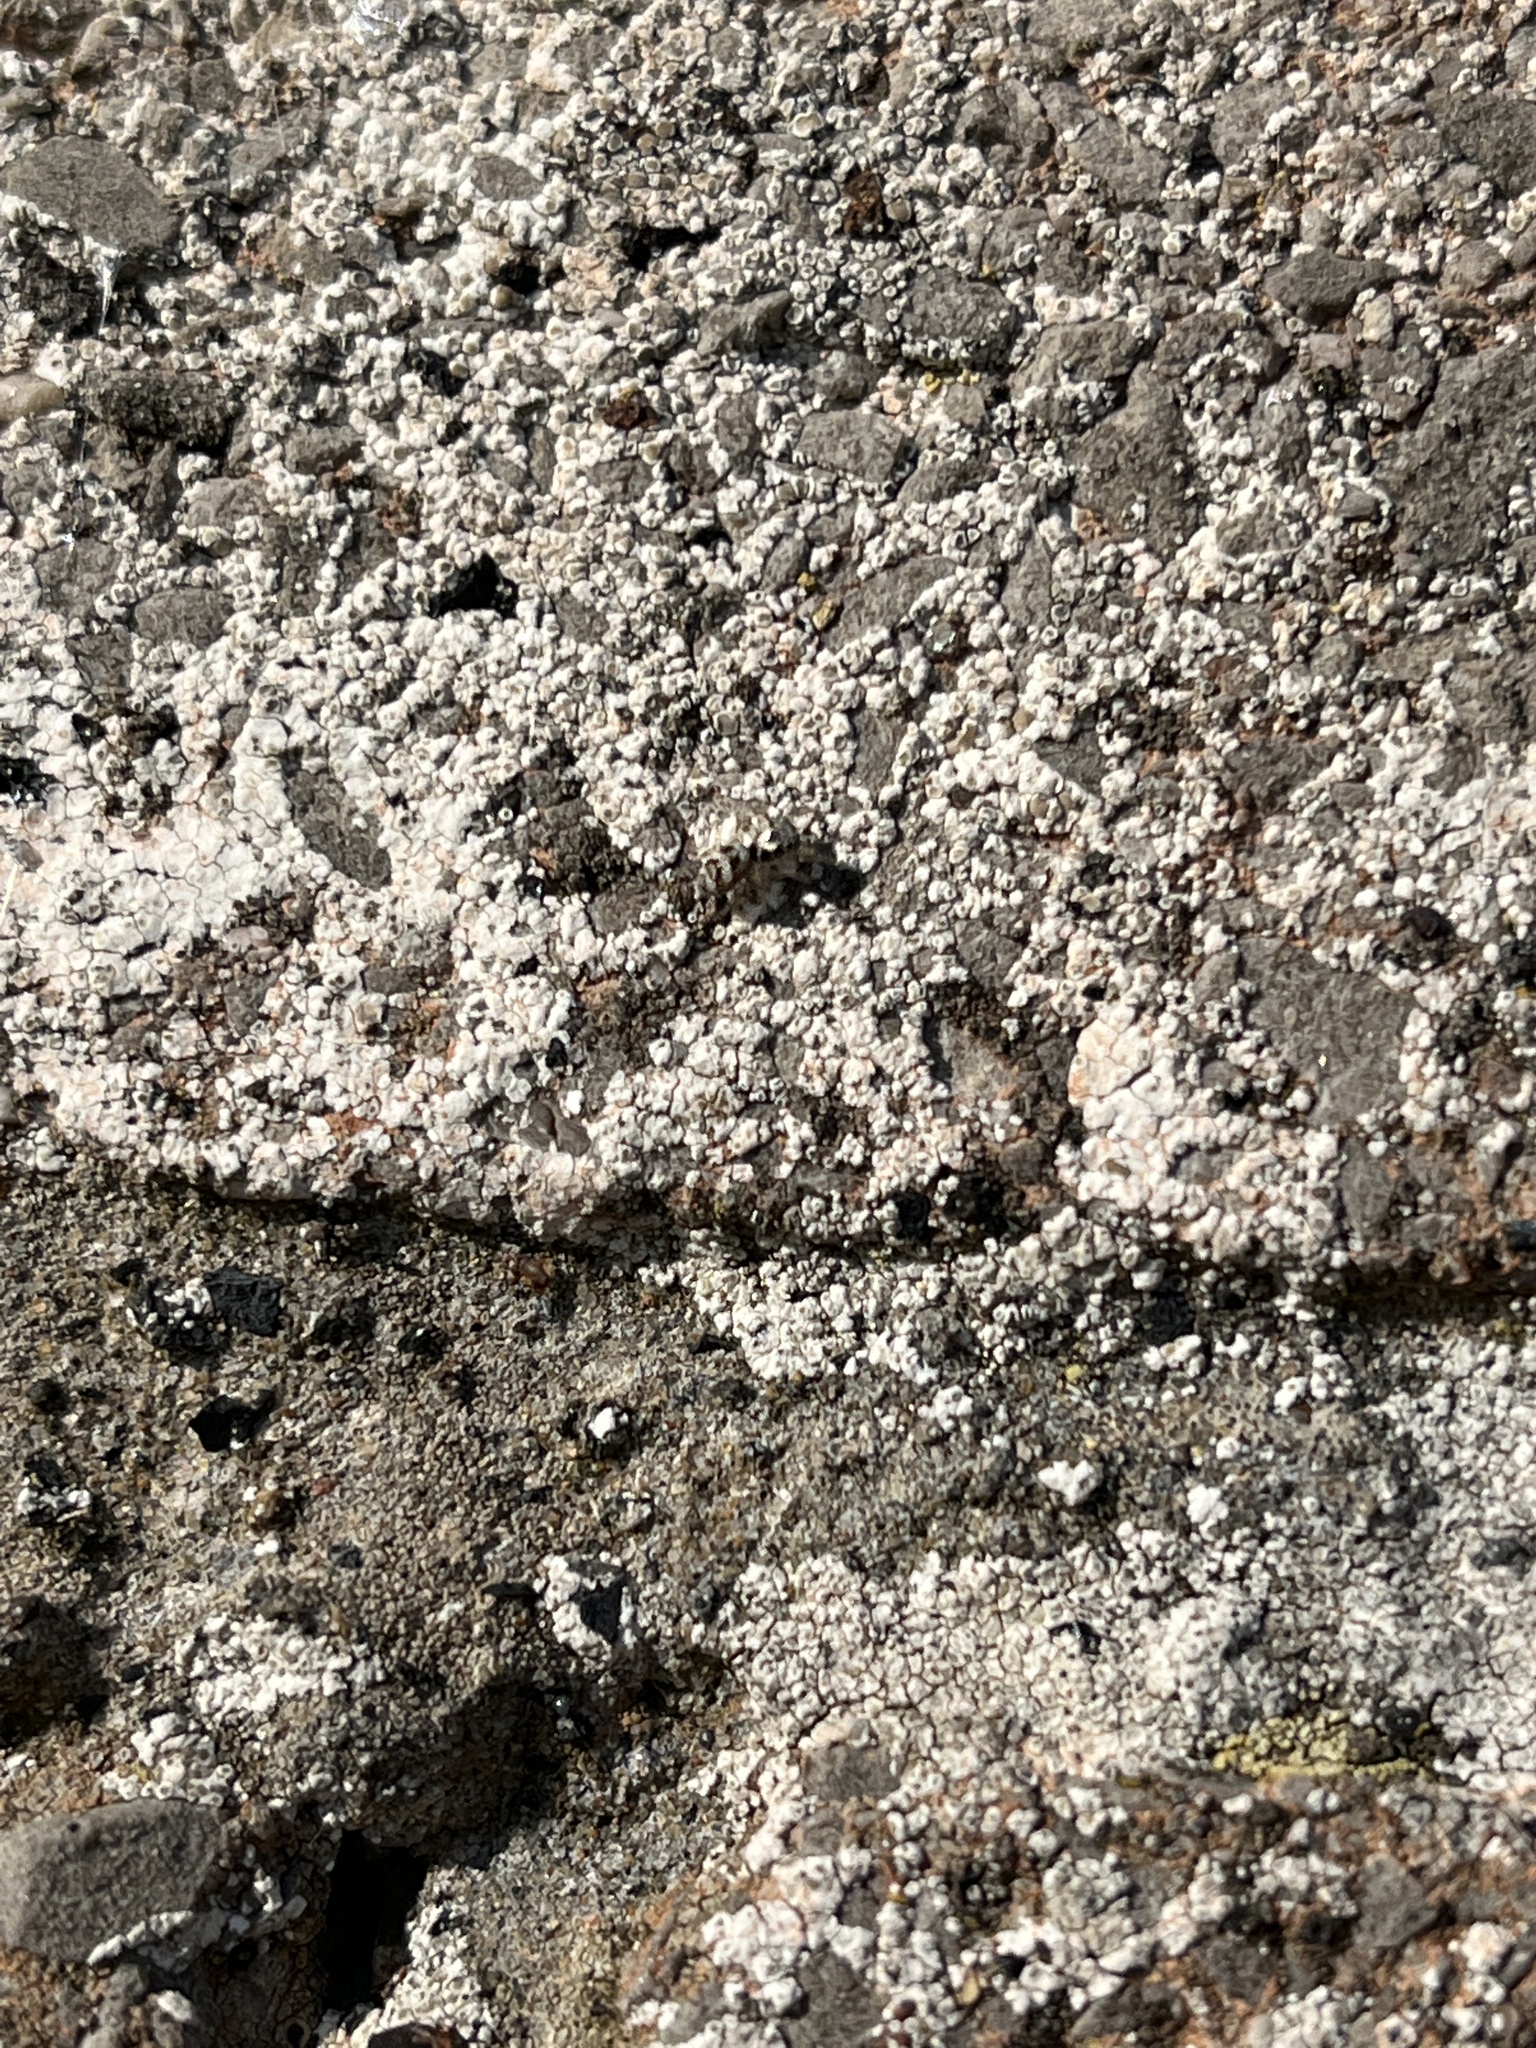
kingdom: Animalia
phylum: Arthropoda
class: Arachnida
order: Araneae
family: Salticidae
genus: Salticus
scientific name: Salticus scenicus
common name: Zebra jumper
